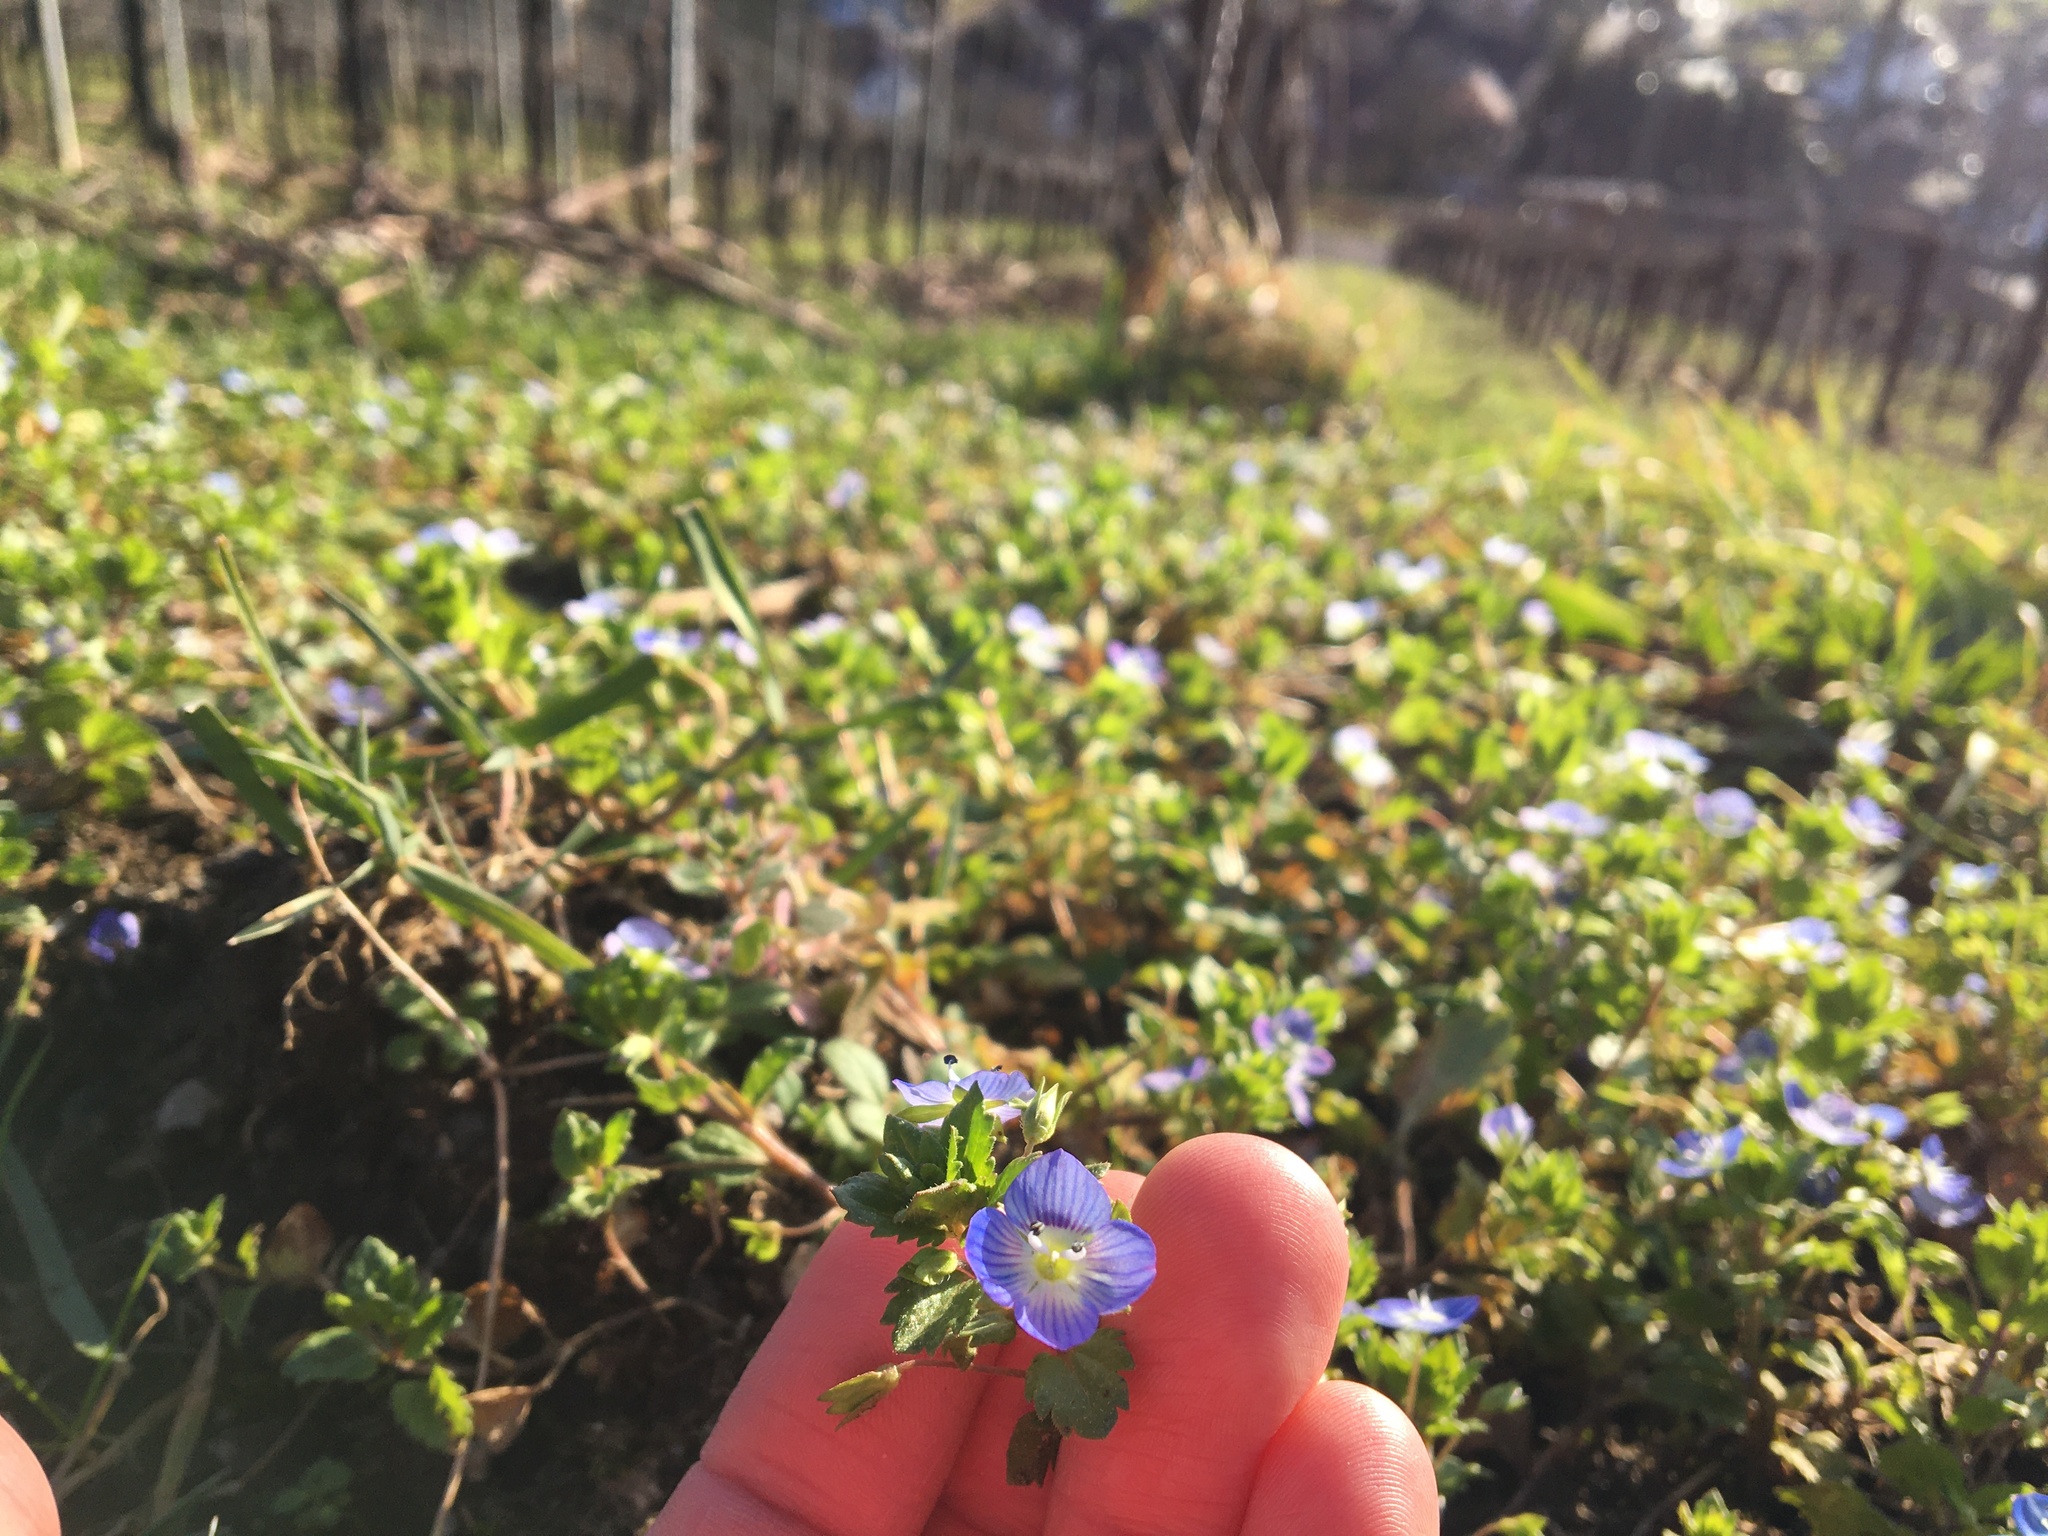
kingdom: Plantae
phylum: Tracheophyta
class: Magnoliopsida
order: Lamiales
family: Plantaginaceae
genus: Veronica
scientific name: Veronica persica
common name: Common field-speedwell
